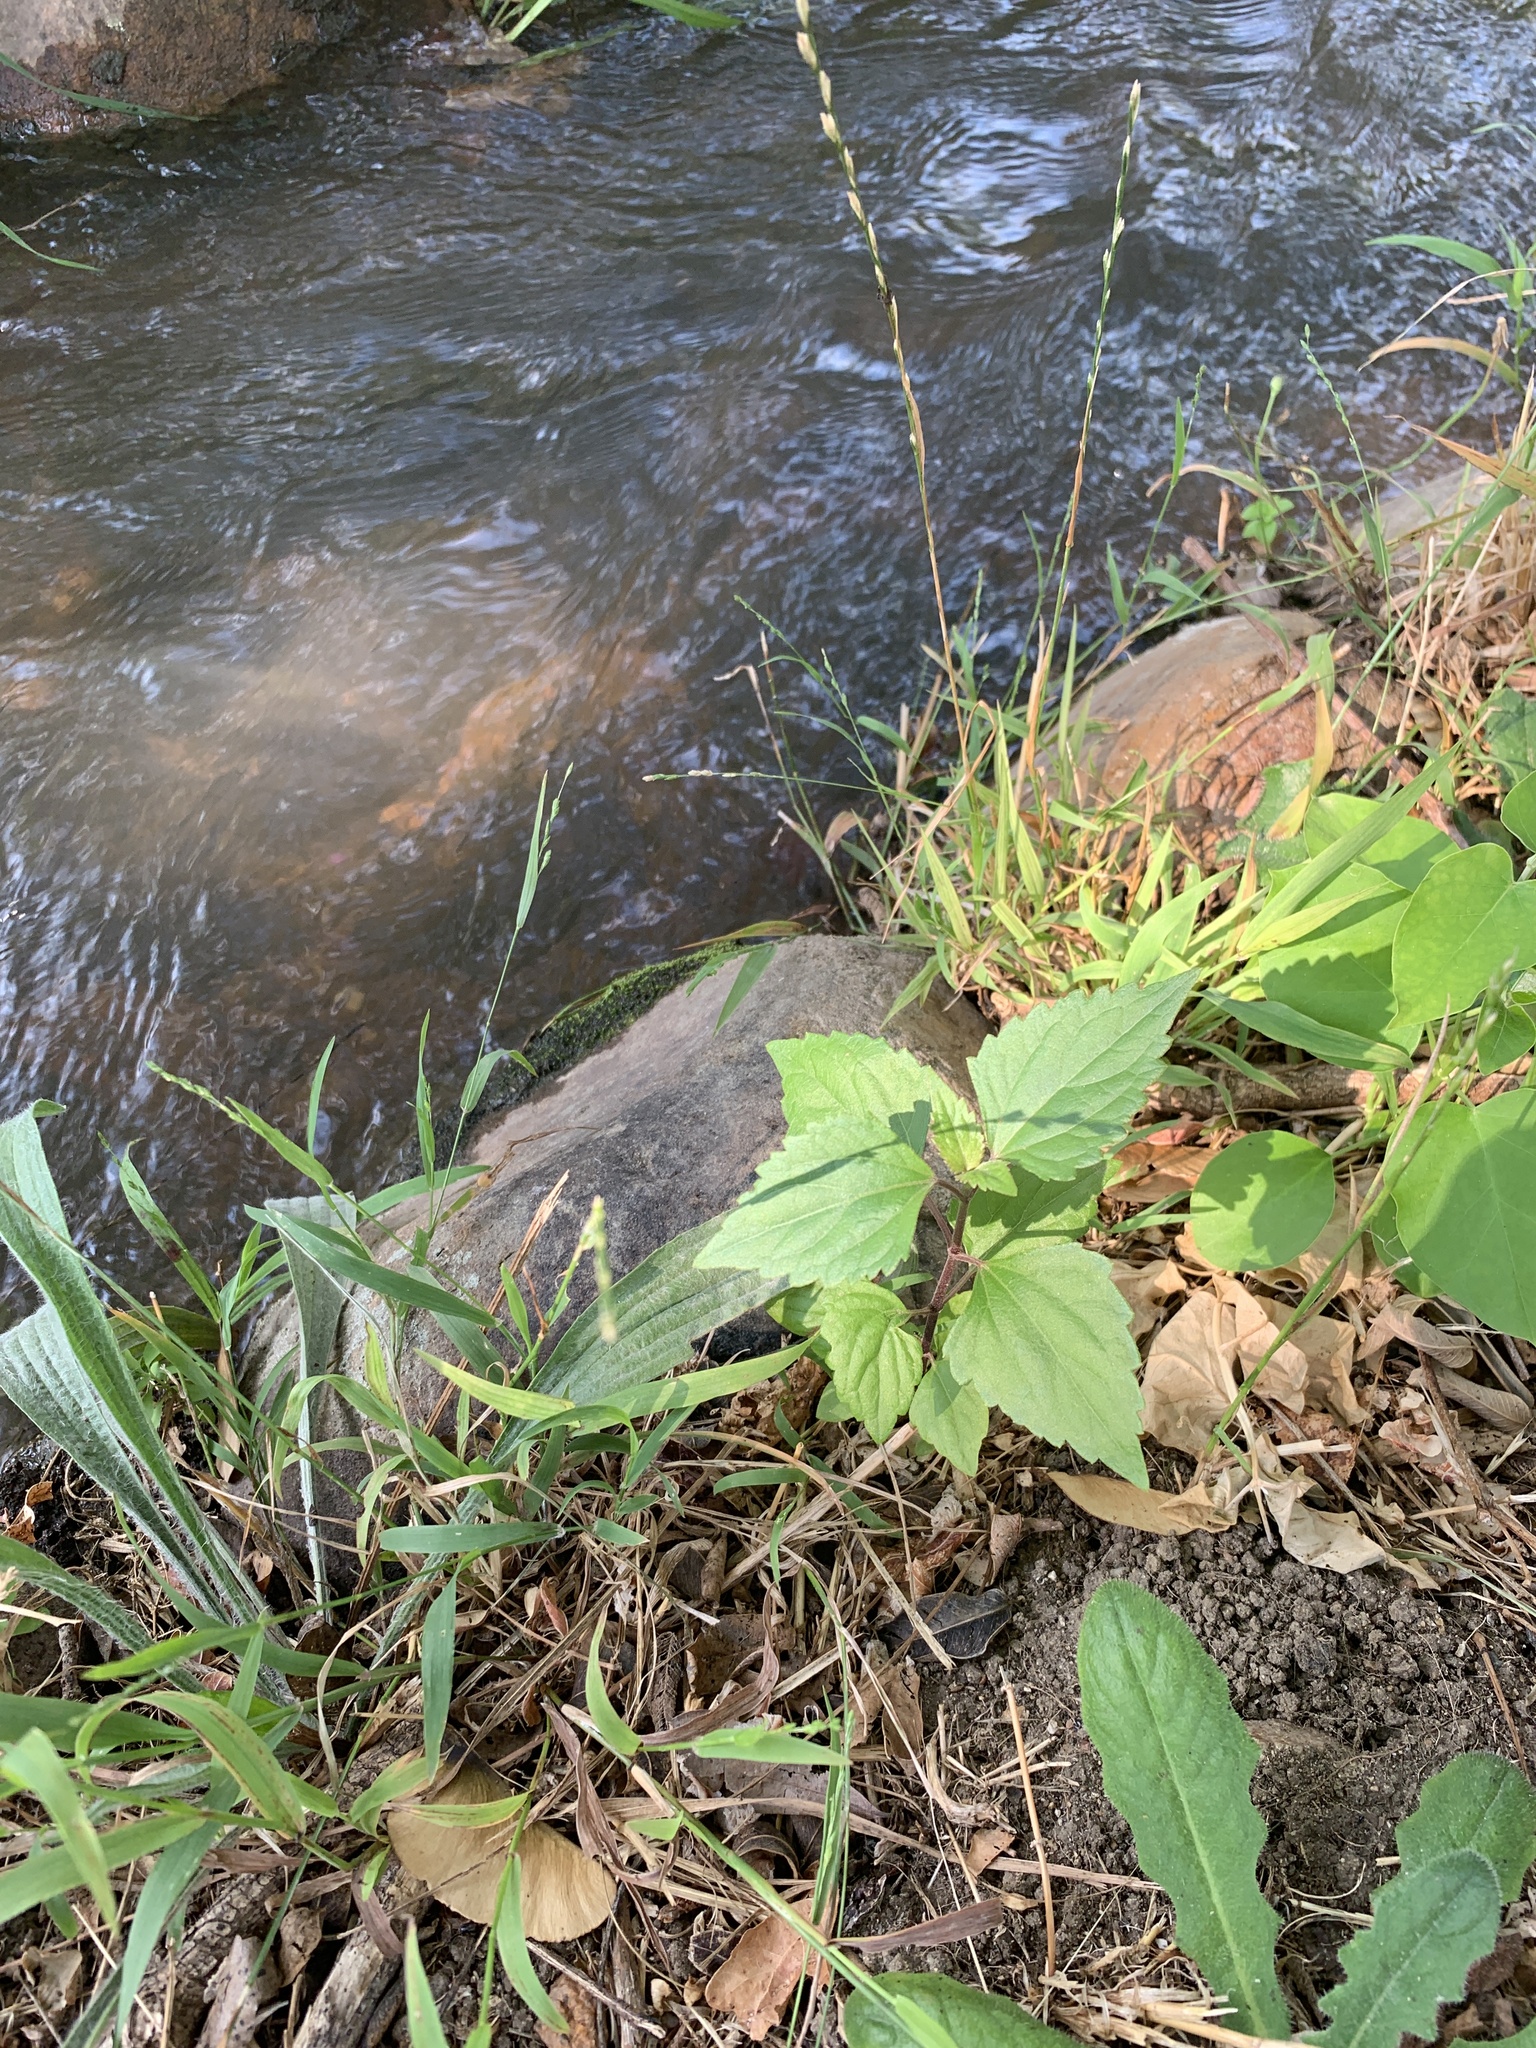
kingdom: Plantae
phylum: Tracheophyta
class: Magnoliopsida
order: Asterales
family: Asteraceae
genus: Ageratina
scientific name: Ageratina adenophora
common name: Sticky snakeroot
